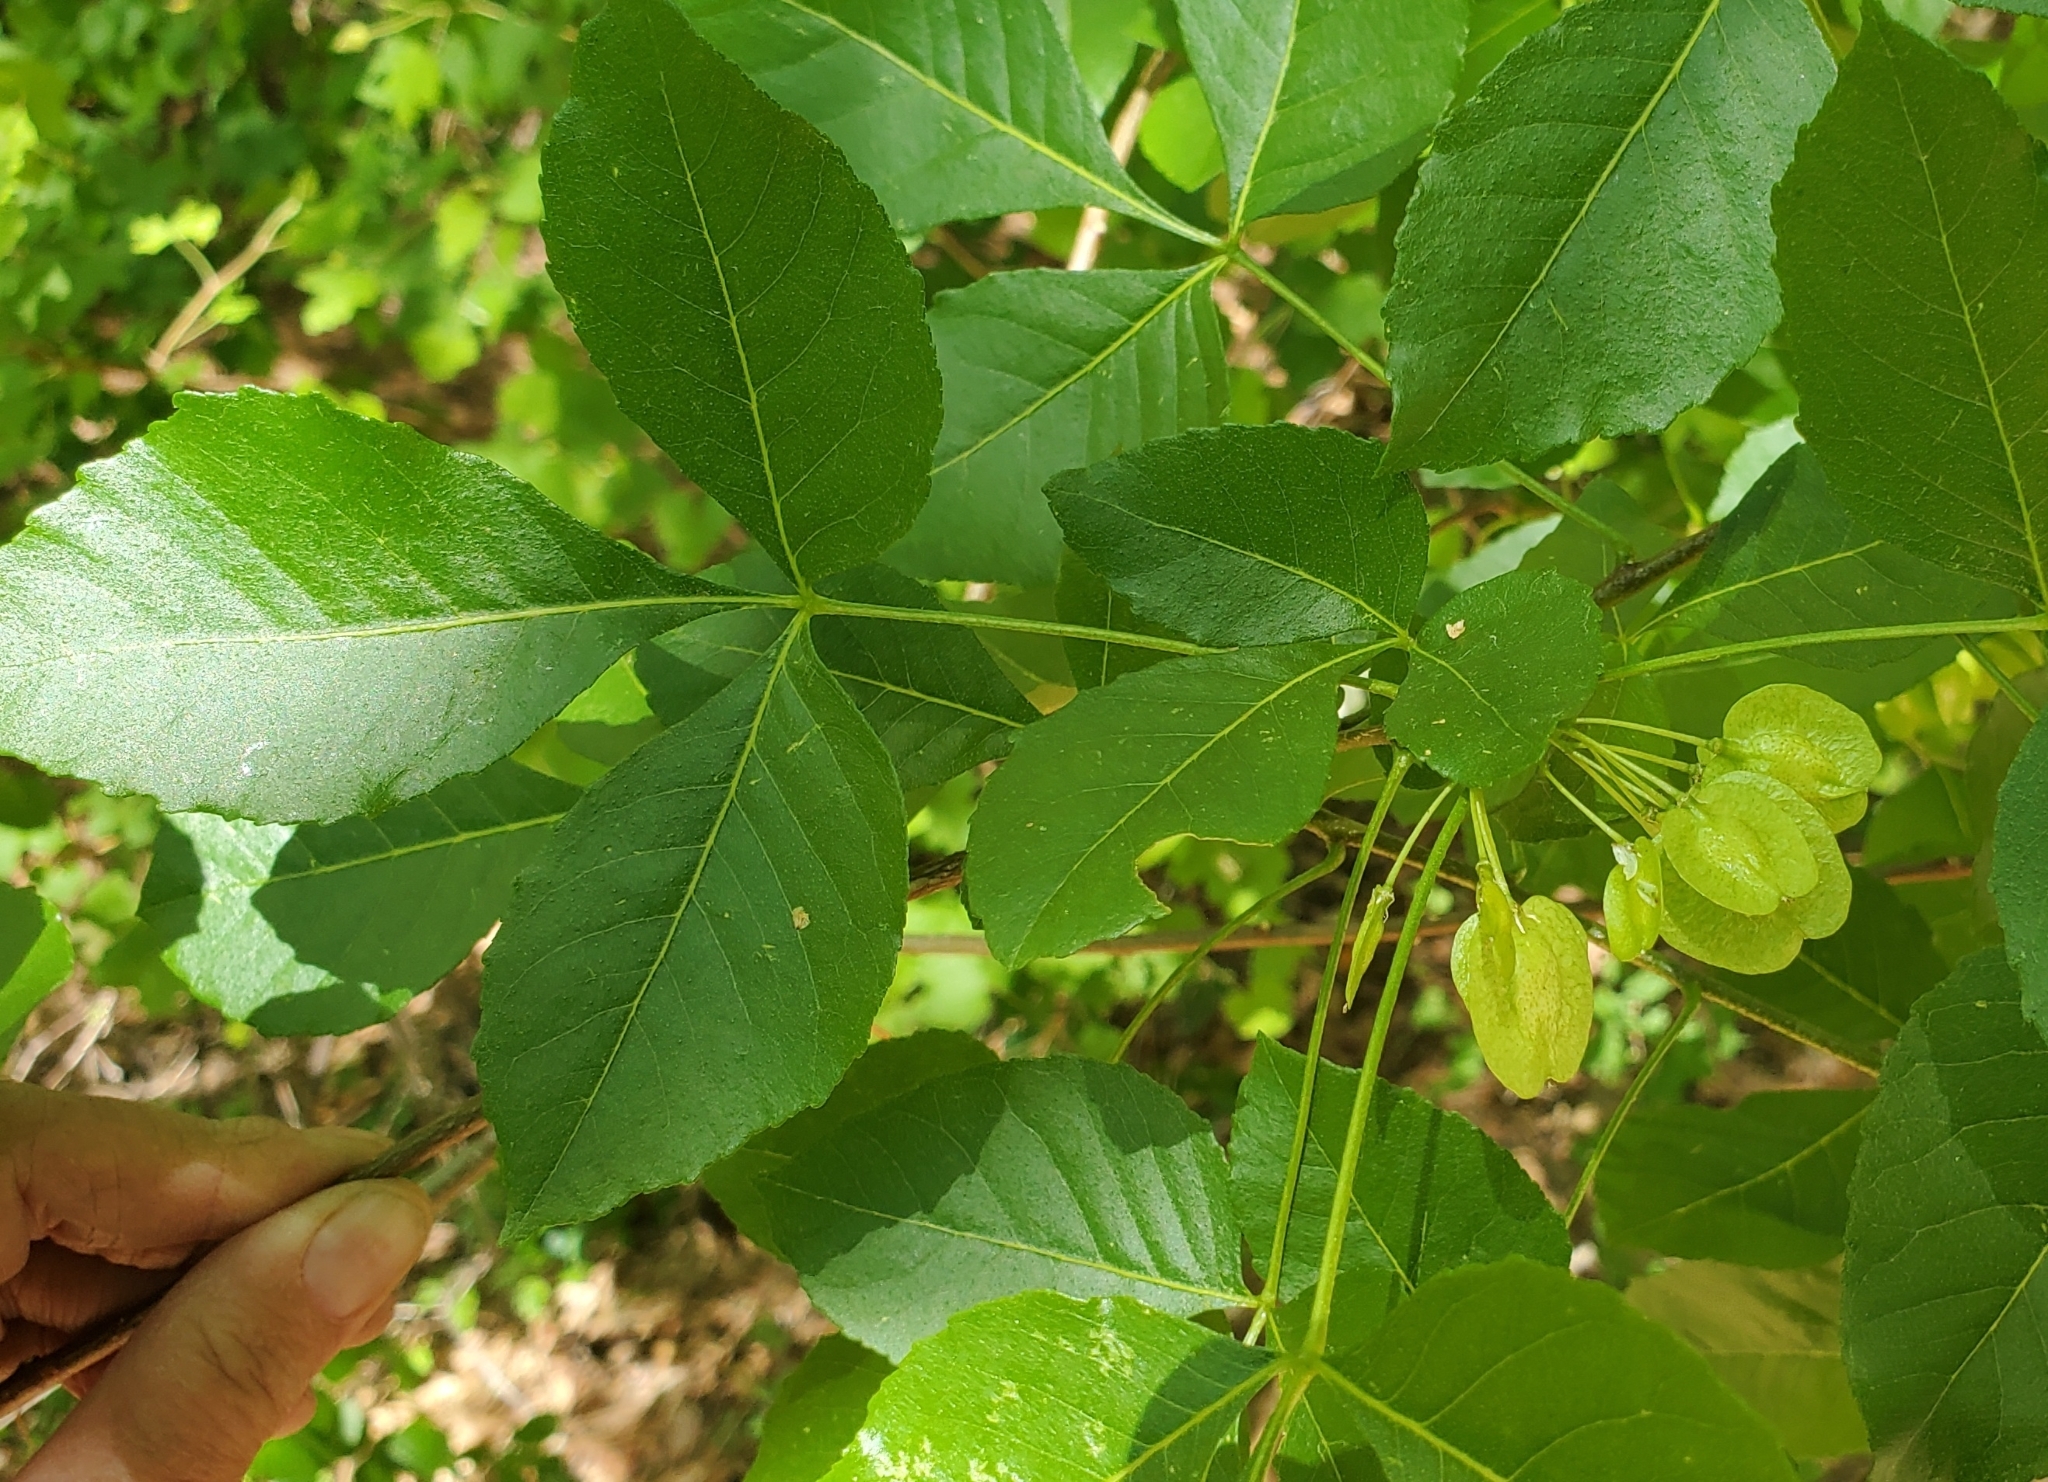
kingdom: Plantae
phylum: Tracheophyta
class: Magnoliopsida
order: Sapindales
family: Rutaceae
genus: Ptelea
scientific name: Ptelea trifoliata
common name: Common hop-tree
